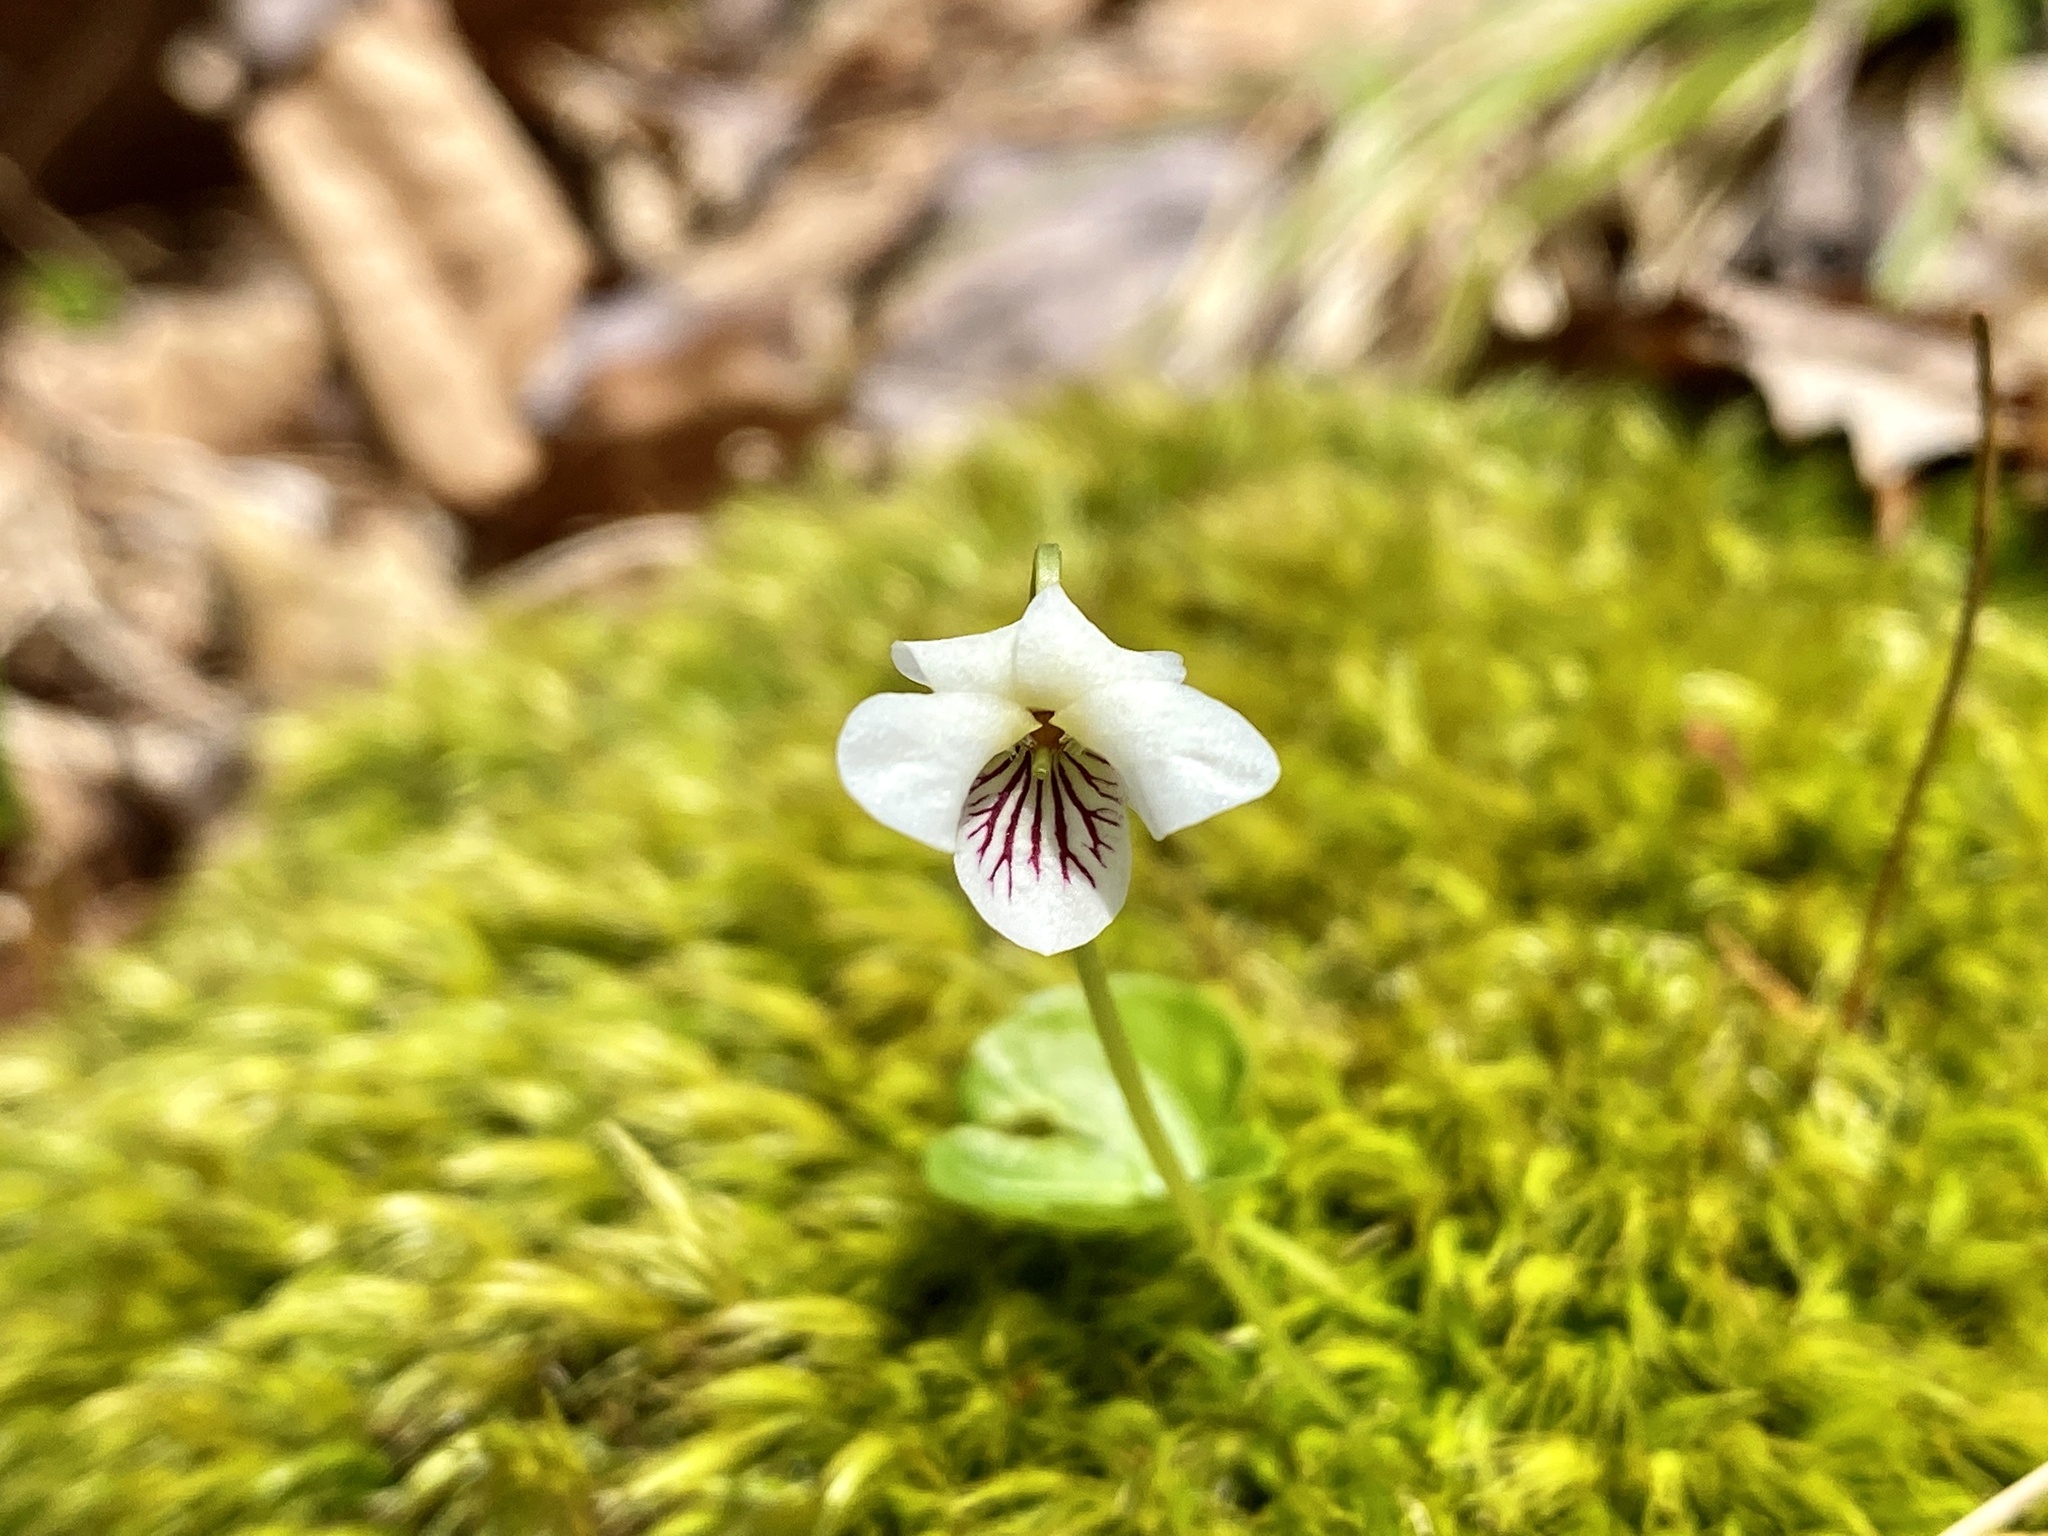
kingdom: Plantae
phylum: Tracheophyta
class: Magnoliopsida
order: Malpighiales
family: Violaceae
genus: Viola
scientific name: Viola minuscula
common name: Northern white violet
